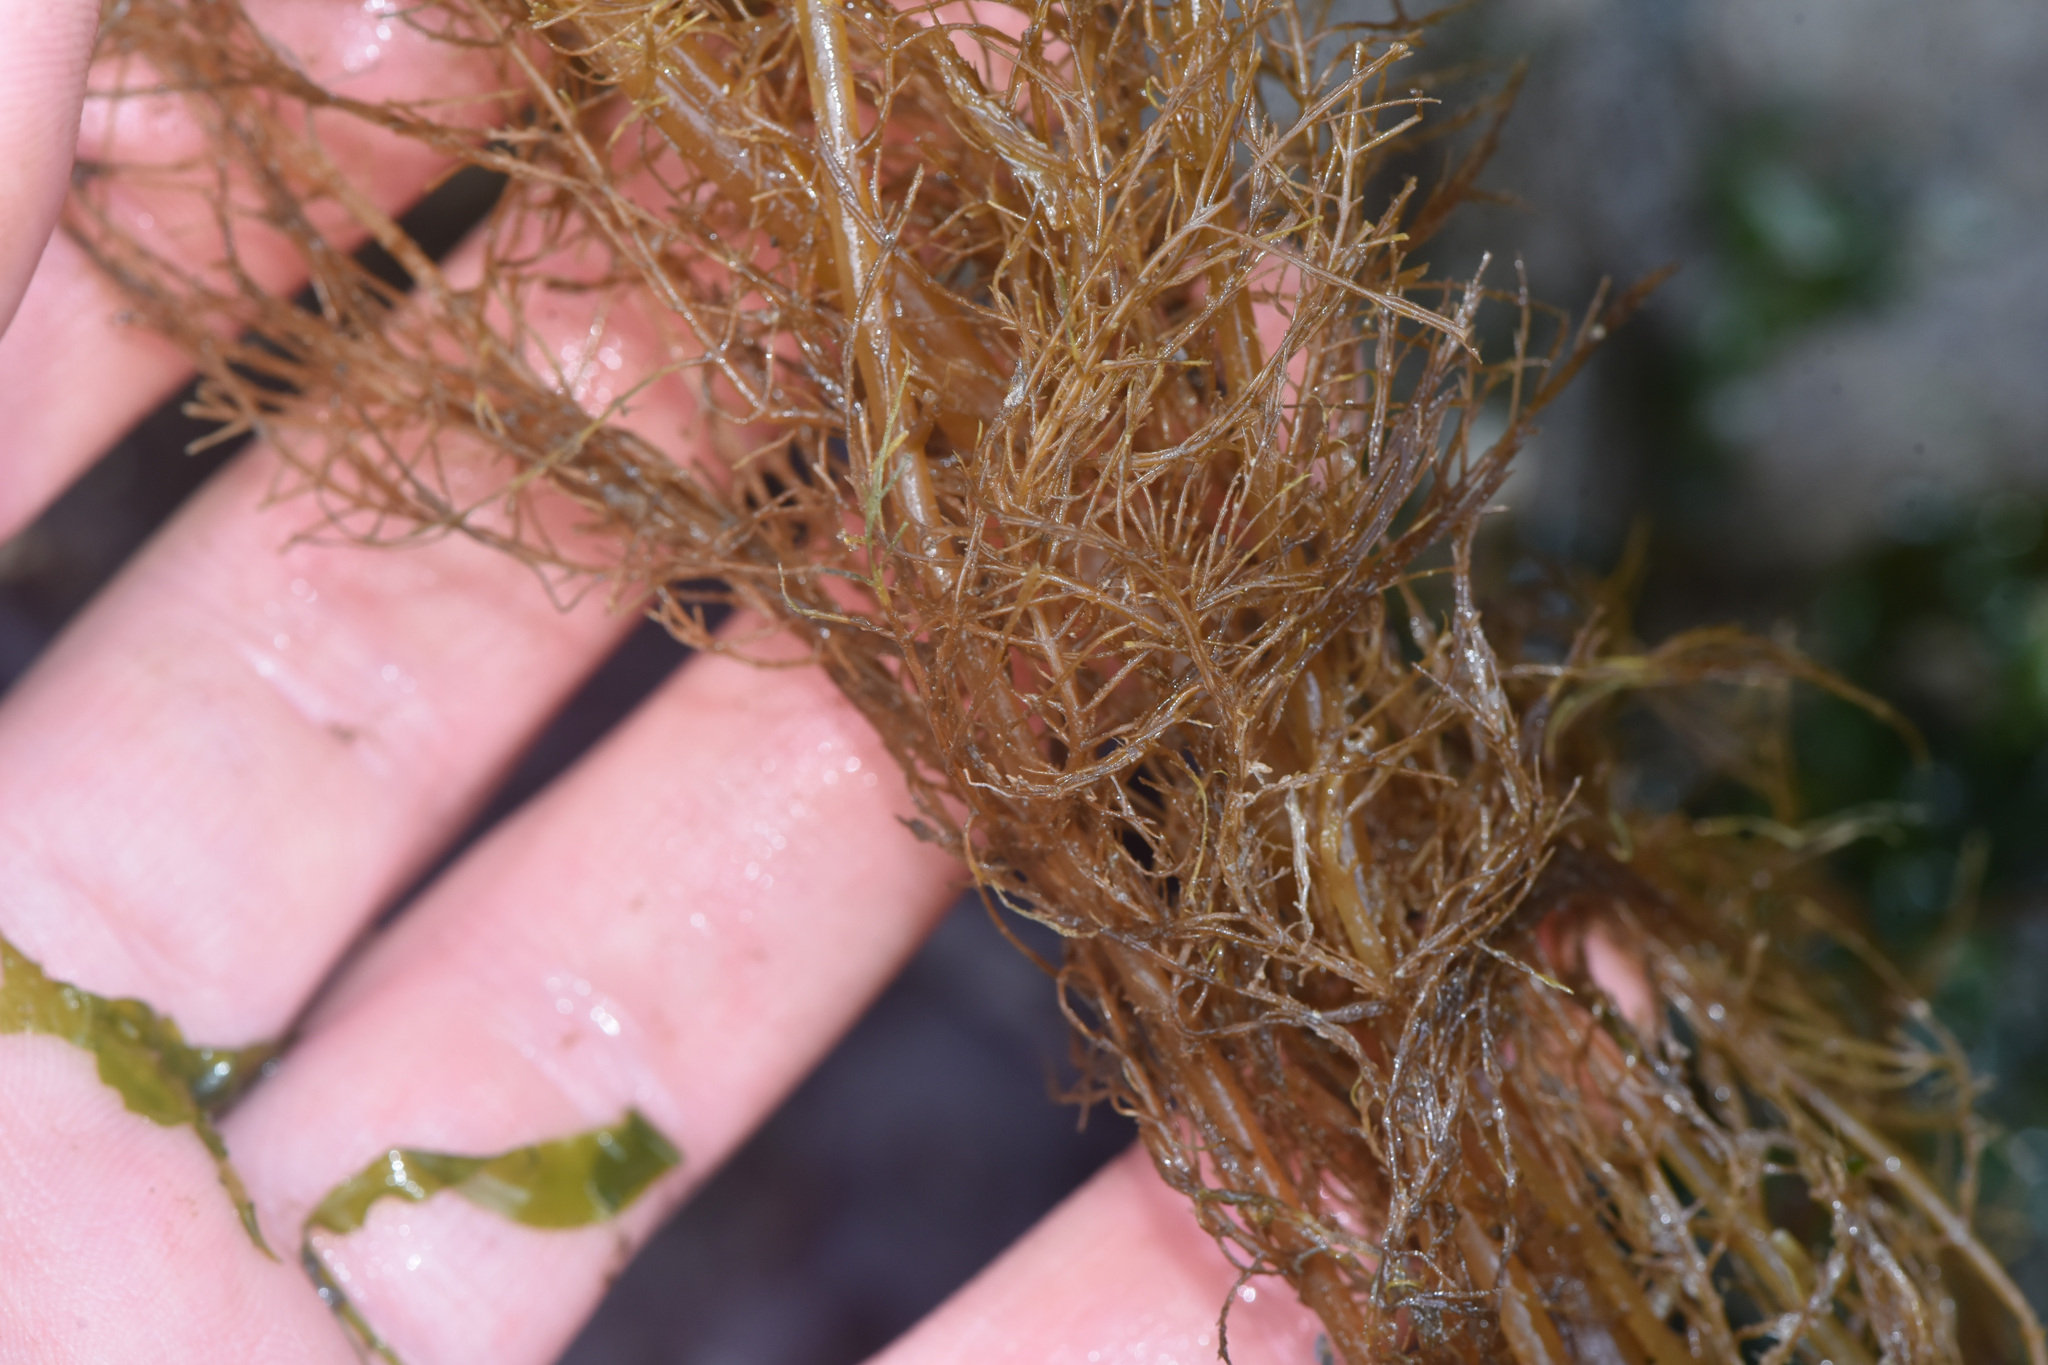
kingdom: Chromista
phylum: Ochrophyta
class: Phaeophyceae
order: Desmarestiales
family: Desmarestiaceae
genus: Desmarestia
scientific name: Desmarestia viridis
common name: Stringy acid kelp
